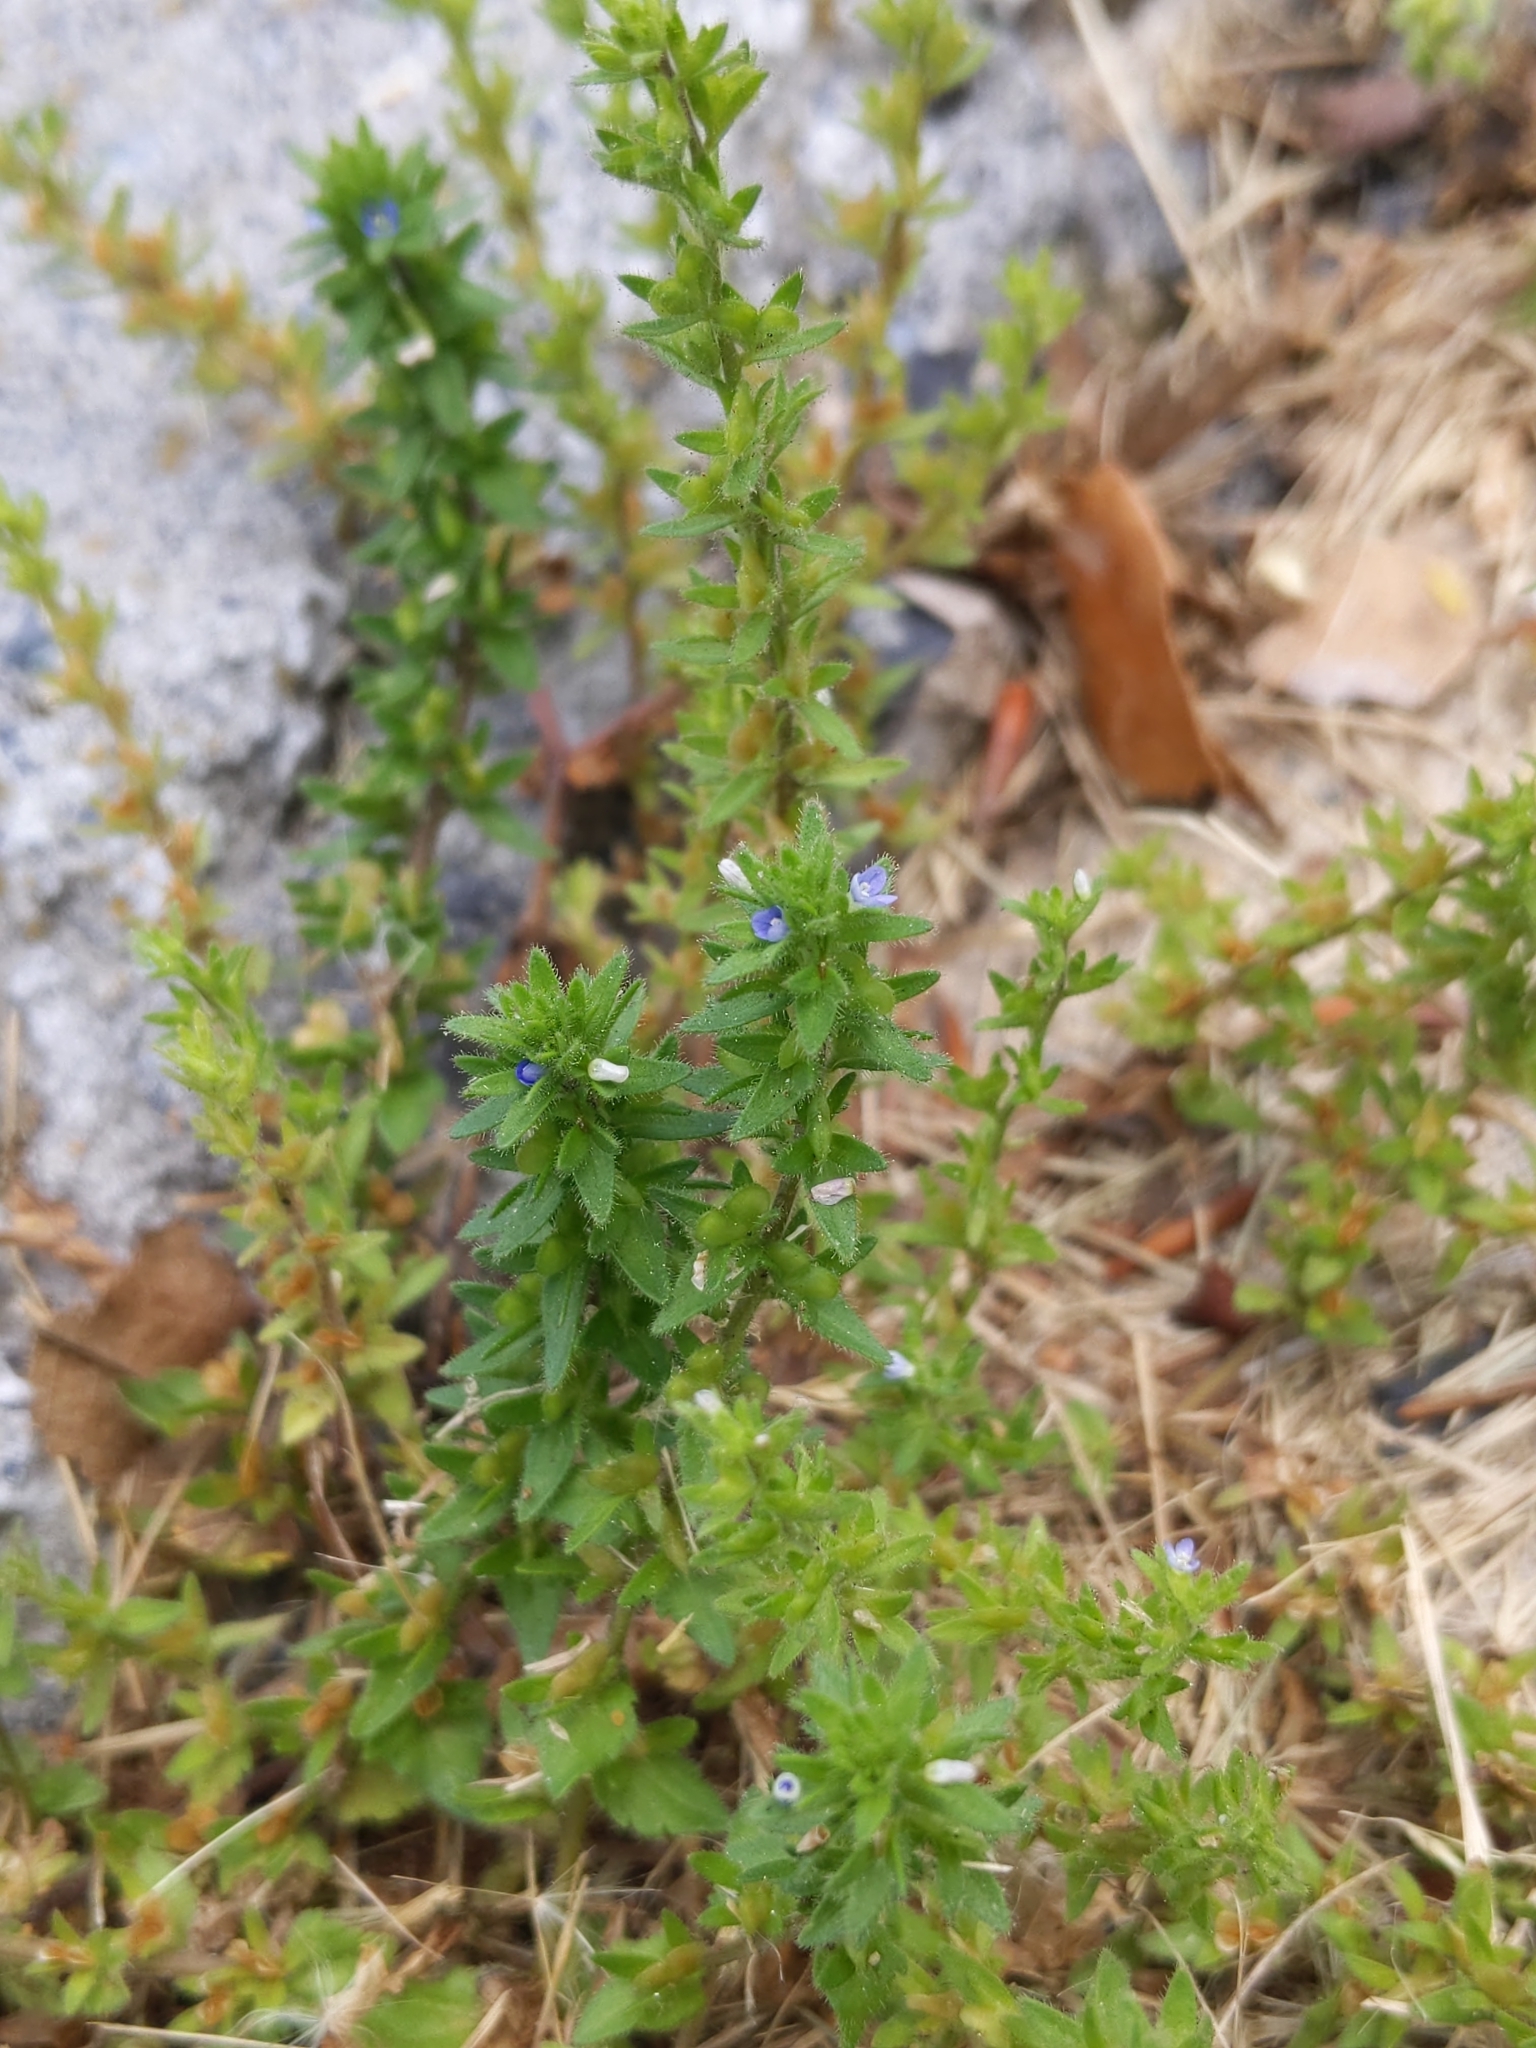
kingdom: Plantae
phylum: Tracheophyta
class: Magnoliopsida
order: Lamiales
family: Plantaginaceae
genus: Veronica
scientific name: Veronica arvensis
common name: Corn speedwell
